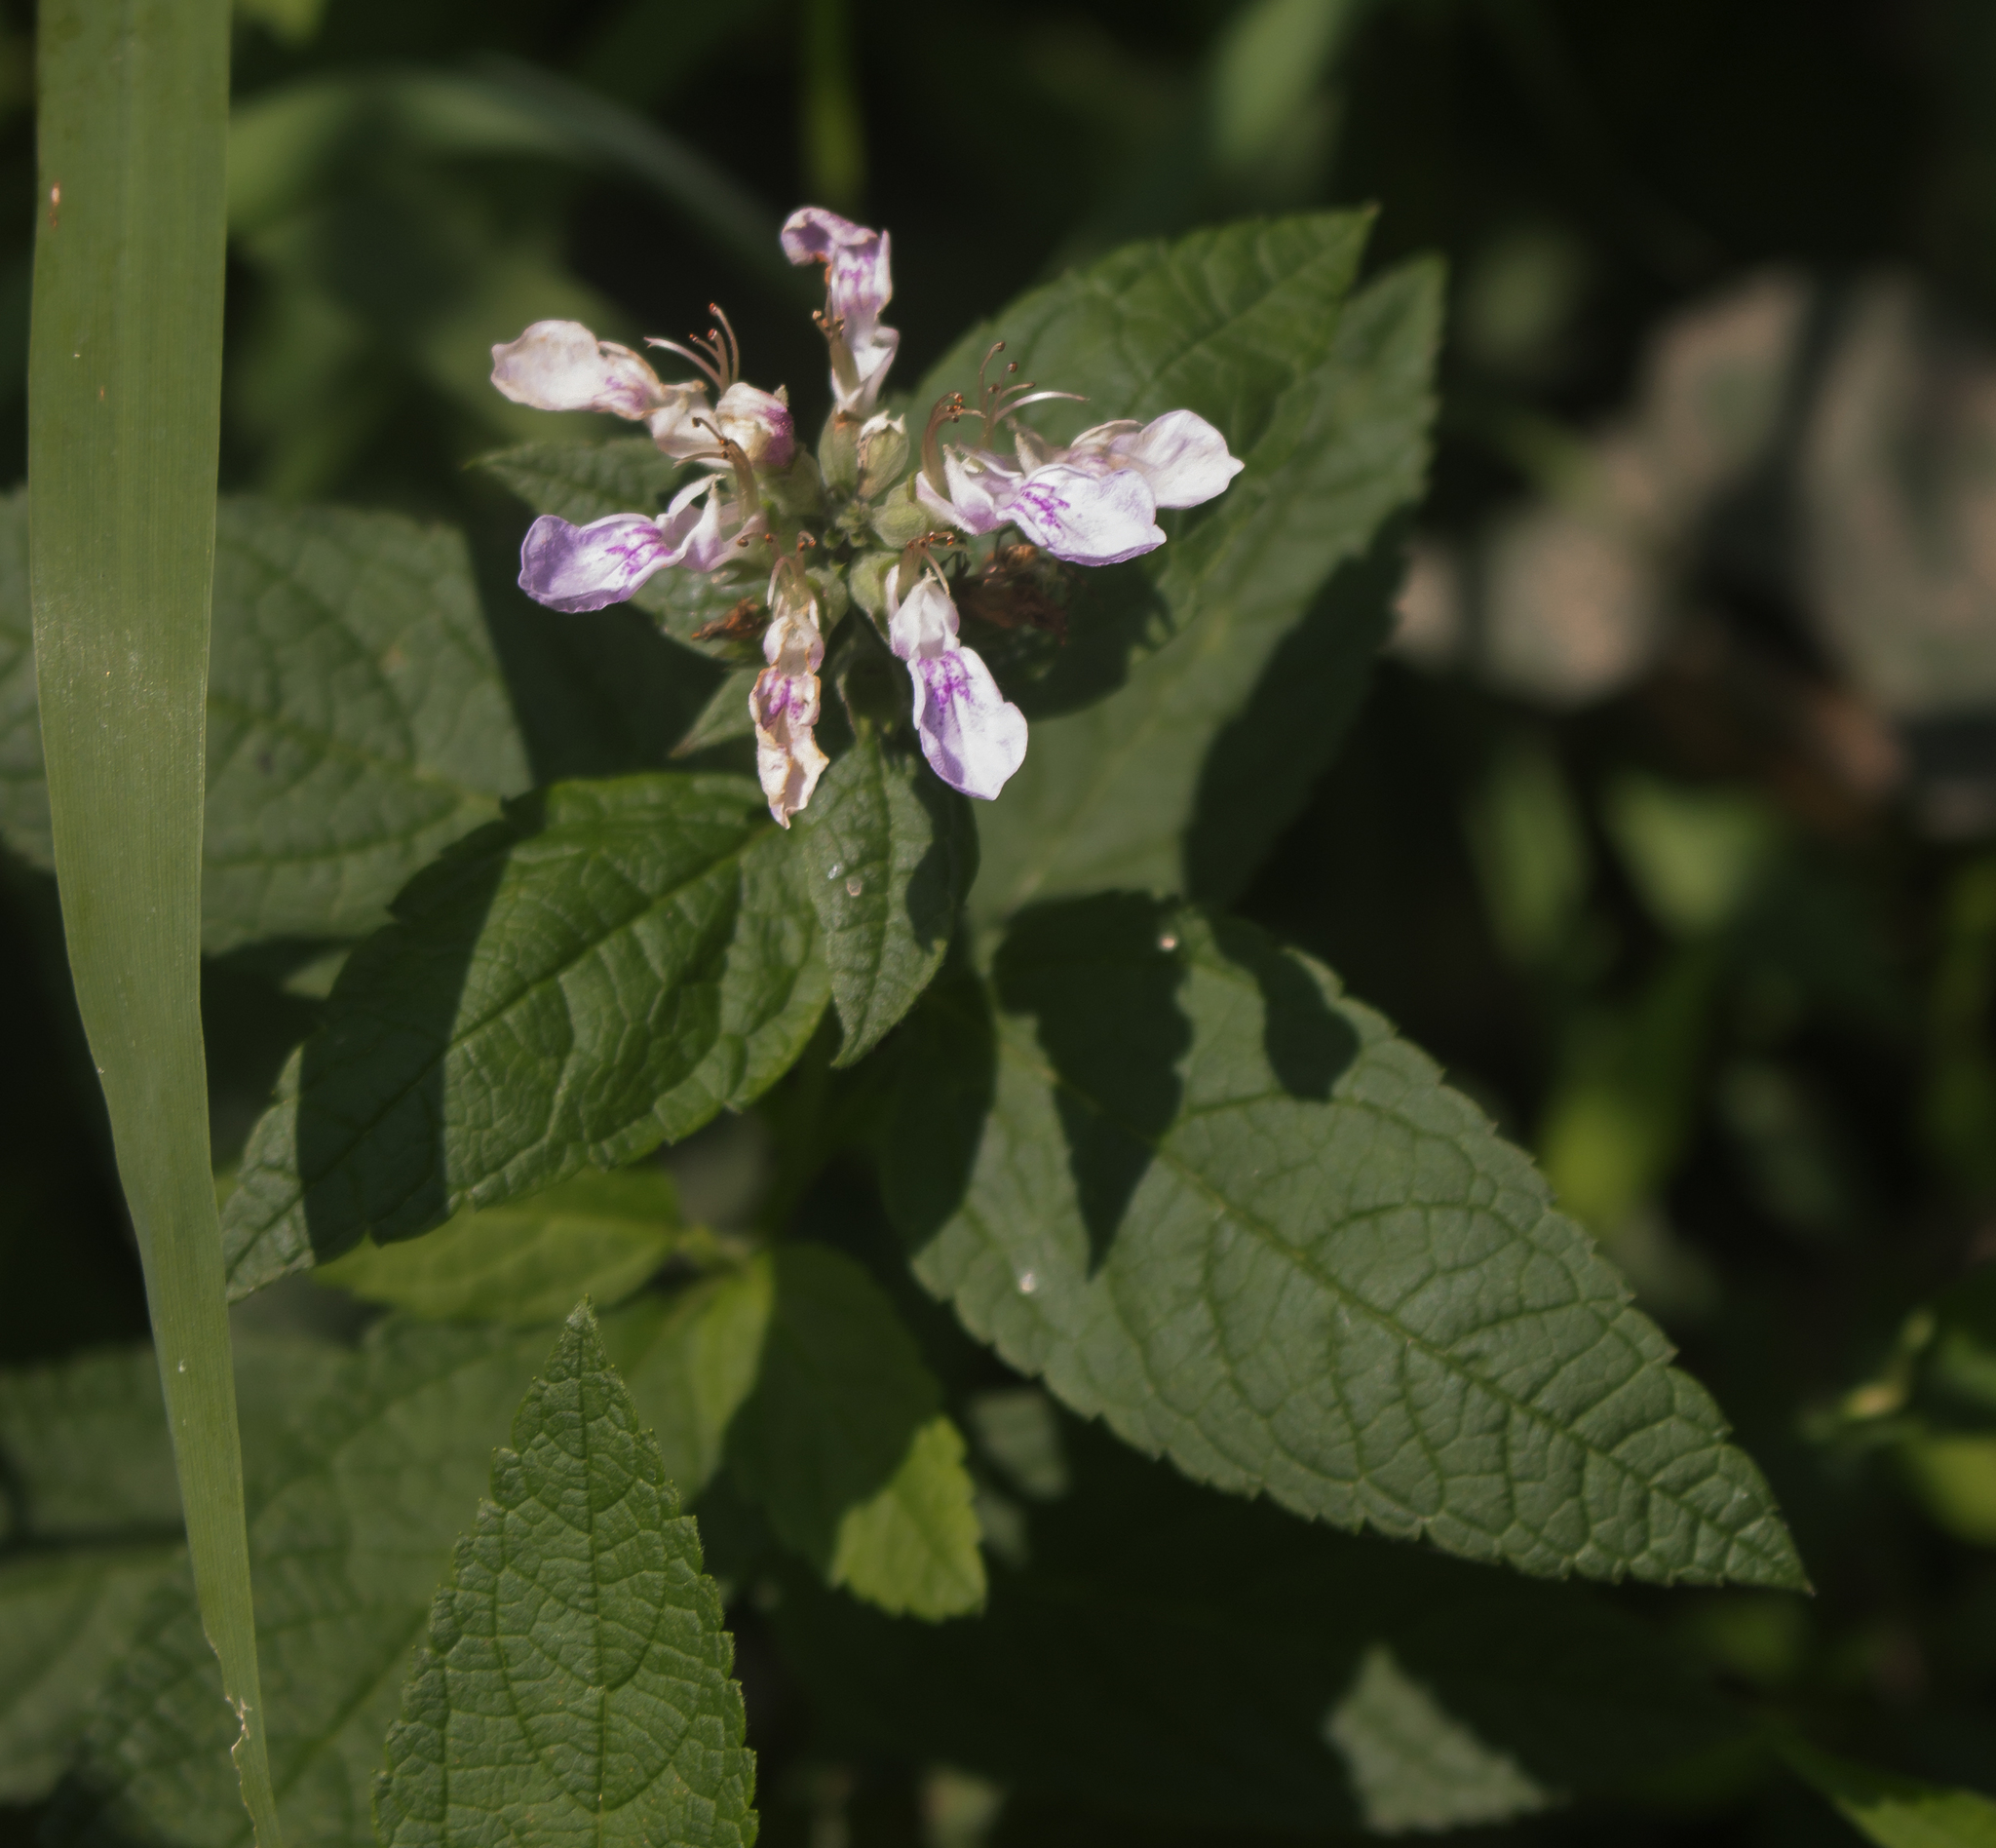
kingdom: Plantae
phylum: Tracheophyta
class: Magnoliopsida
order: Lamiales
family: Lamiaceae
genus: Teucrium
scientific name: Teucrium canadense
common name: American germander
